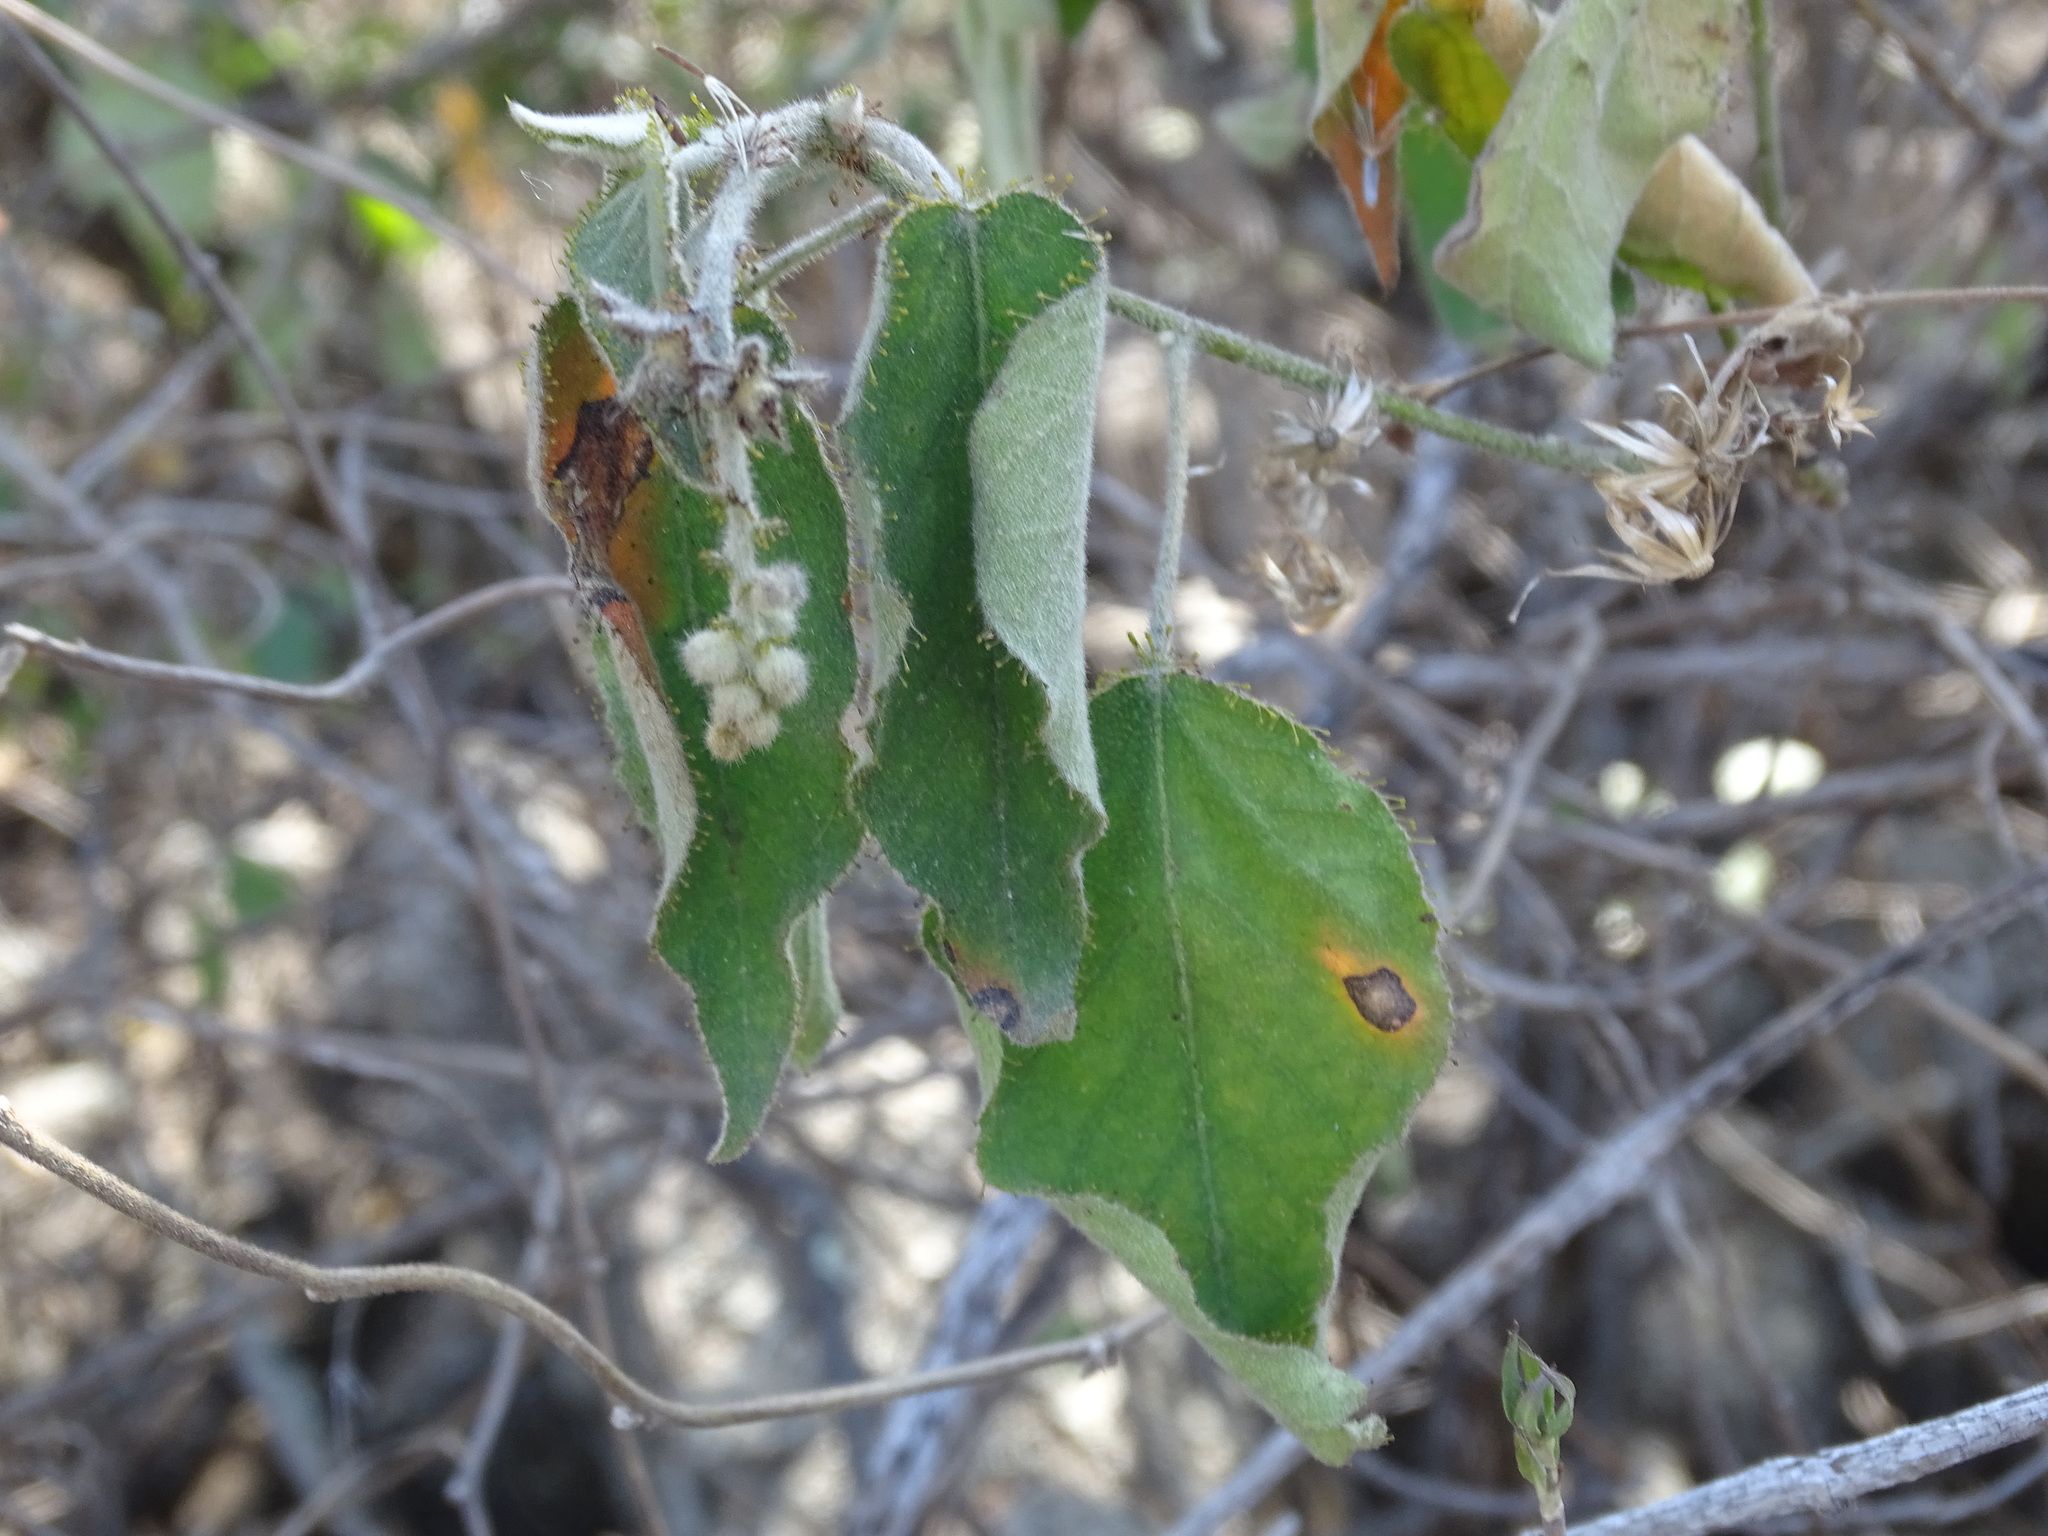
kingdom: Plantae
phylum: Tracheophyta
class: Magnoliopsida
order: Malpighiales
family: Euphorbiaceae
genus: Croton
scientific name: Croton ciliatoglandulifer
